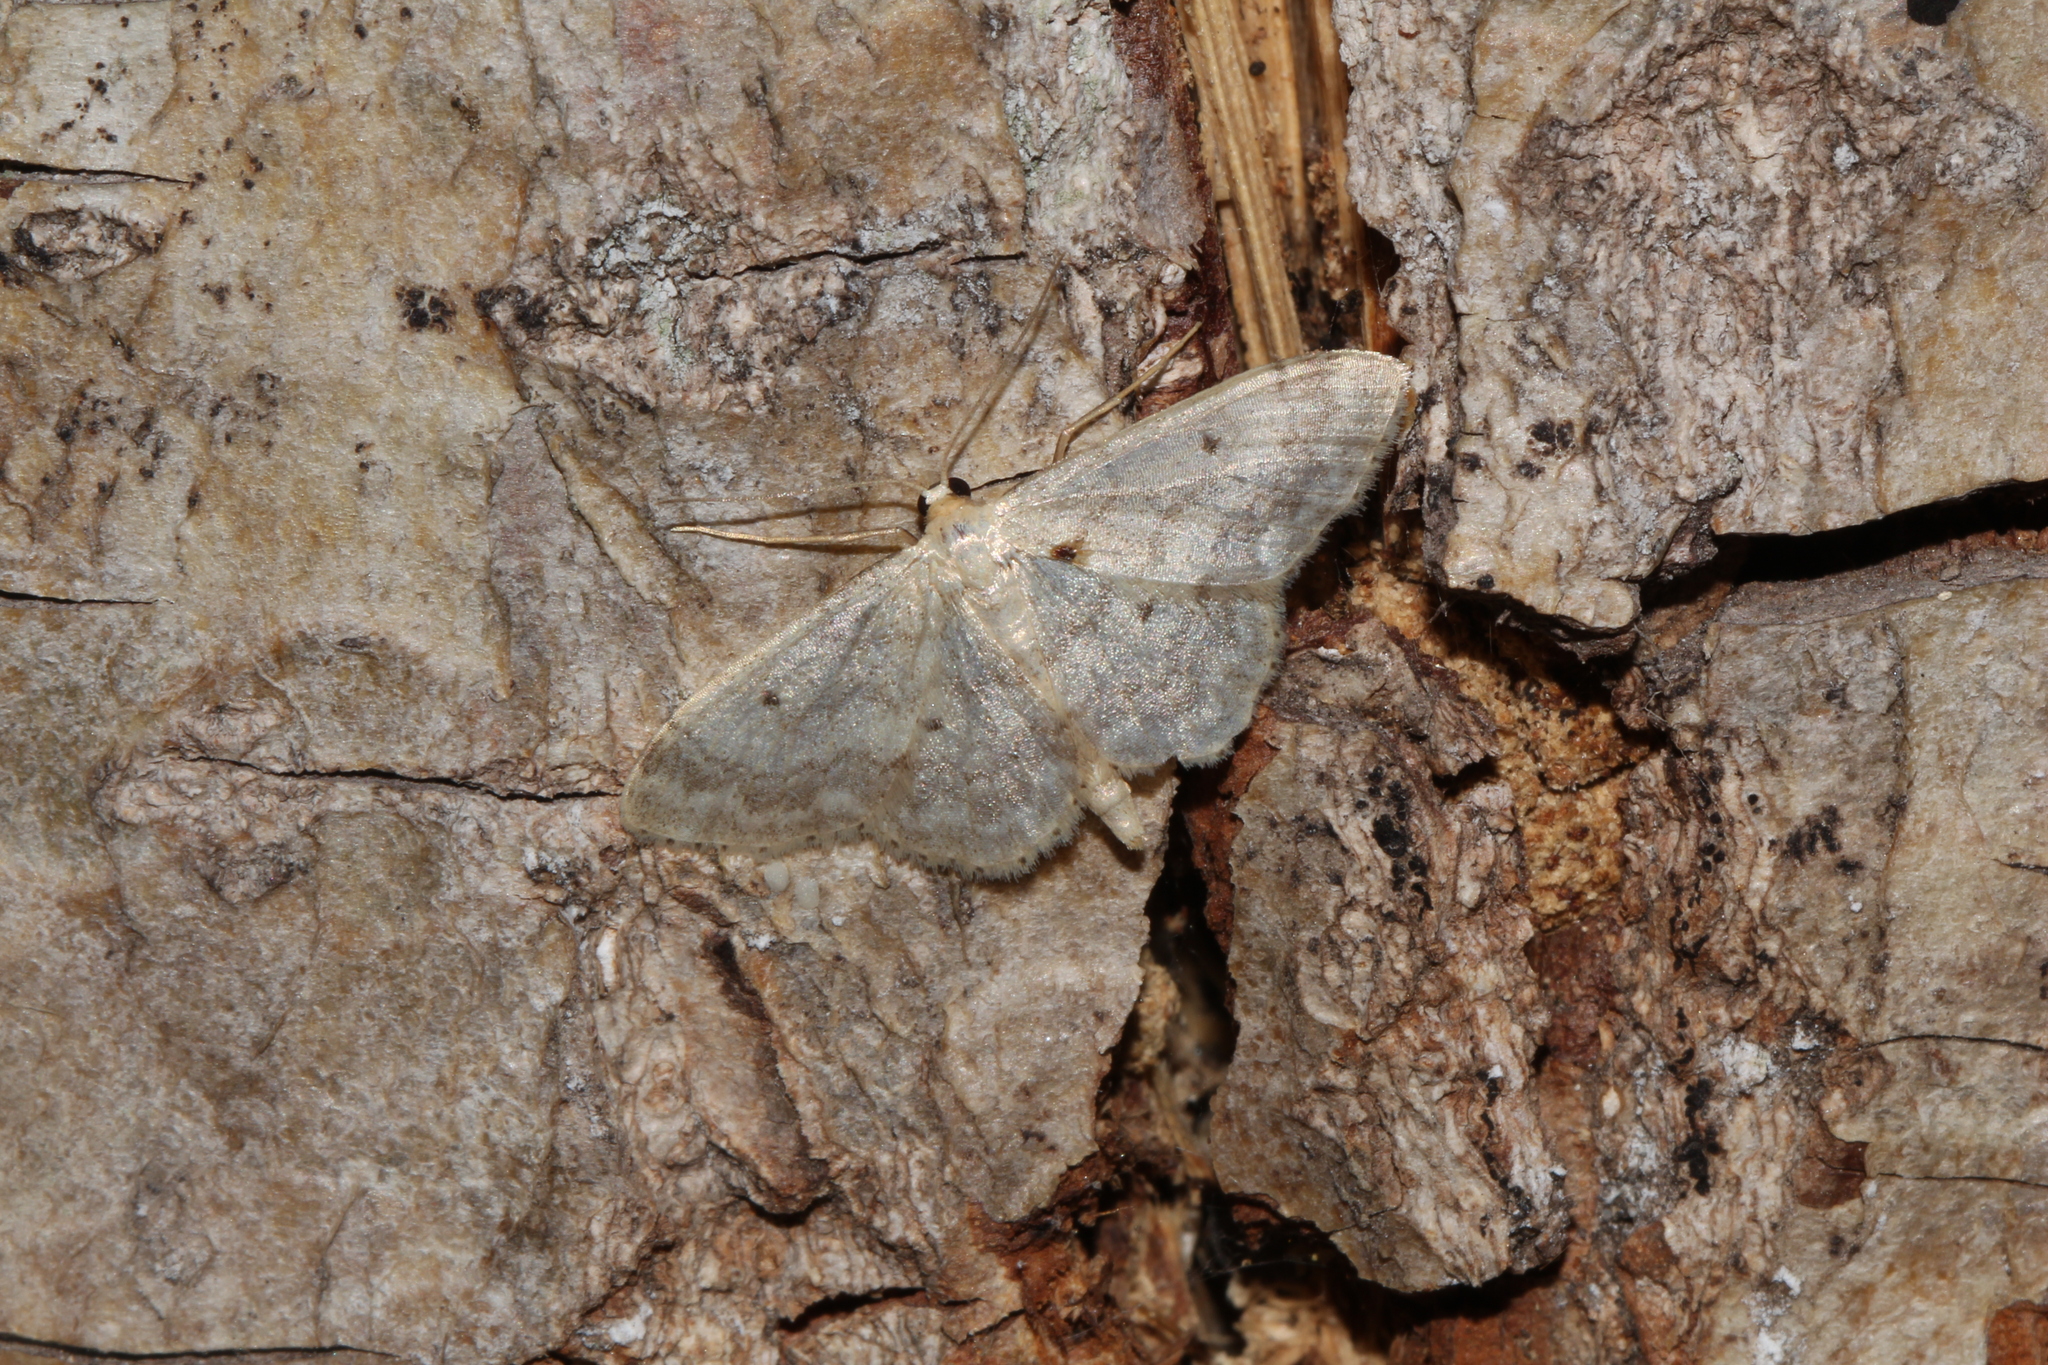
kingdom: Animalia
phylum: Arthropoda
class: Insecta
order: Lepidoptera
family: Geometridae
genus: Idaea
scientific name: Idaea biselata
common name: Small fan-footed wave
